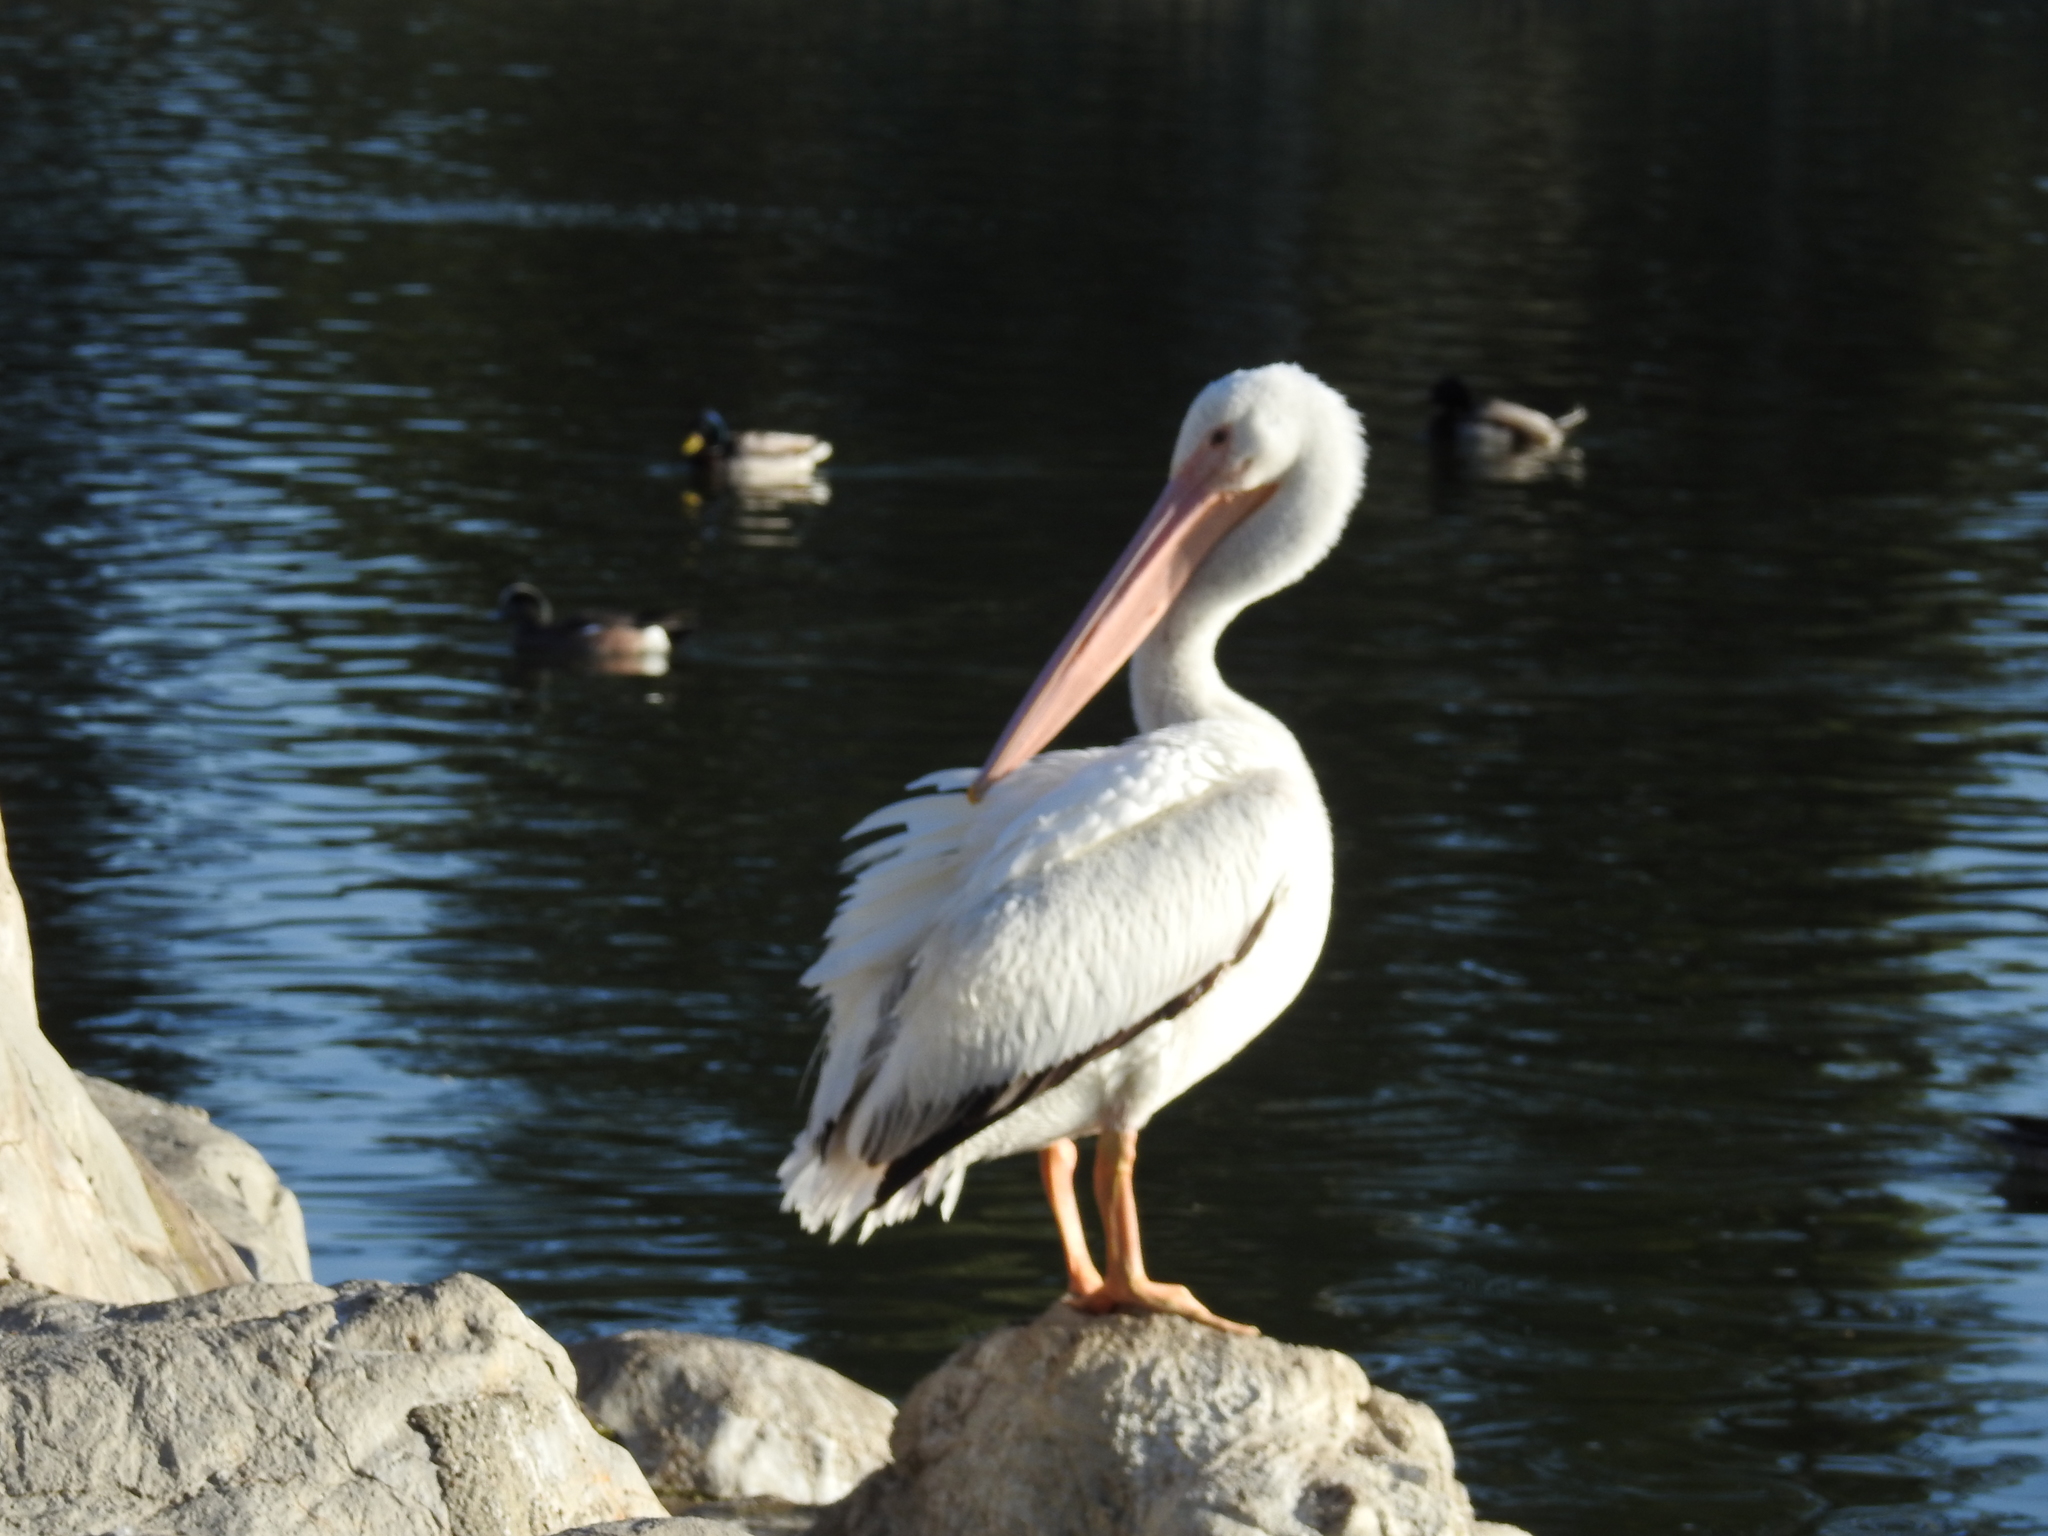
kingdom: Animalia
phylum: Chordata
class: Aves
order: Pelecaniformes
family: Pelecanidae
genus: Pelecanus
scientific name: Pelecanus erythrorhynchos
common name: American white pelican
